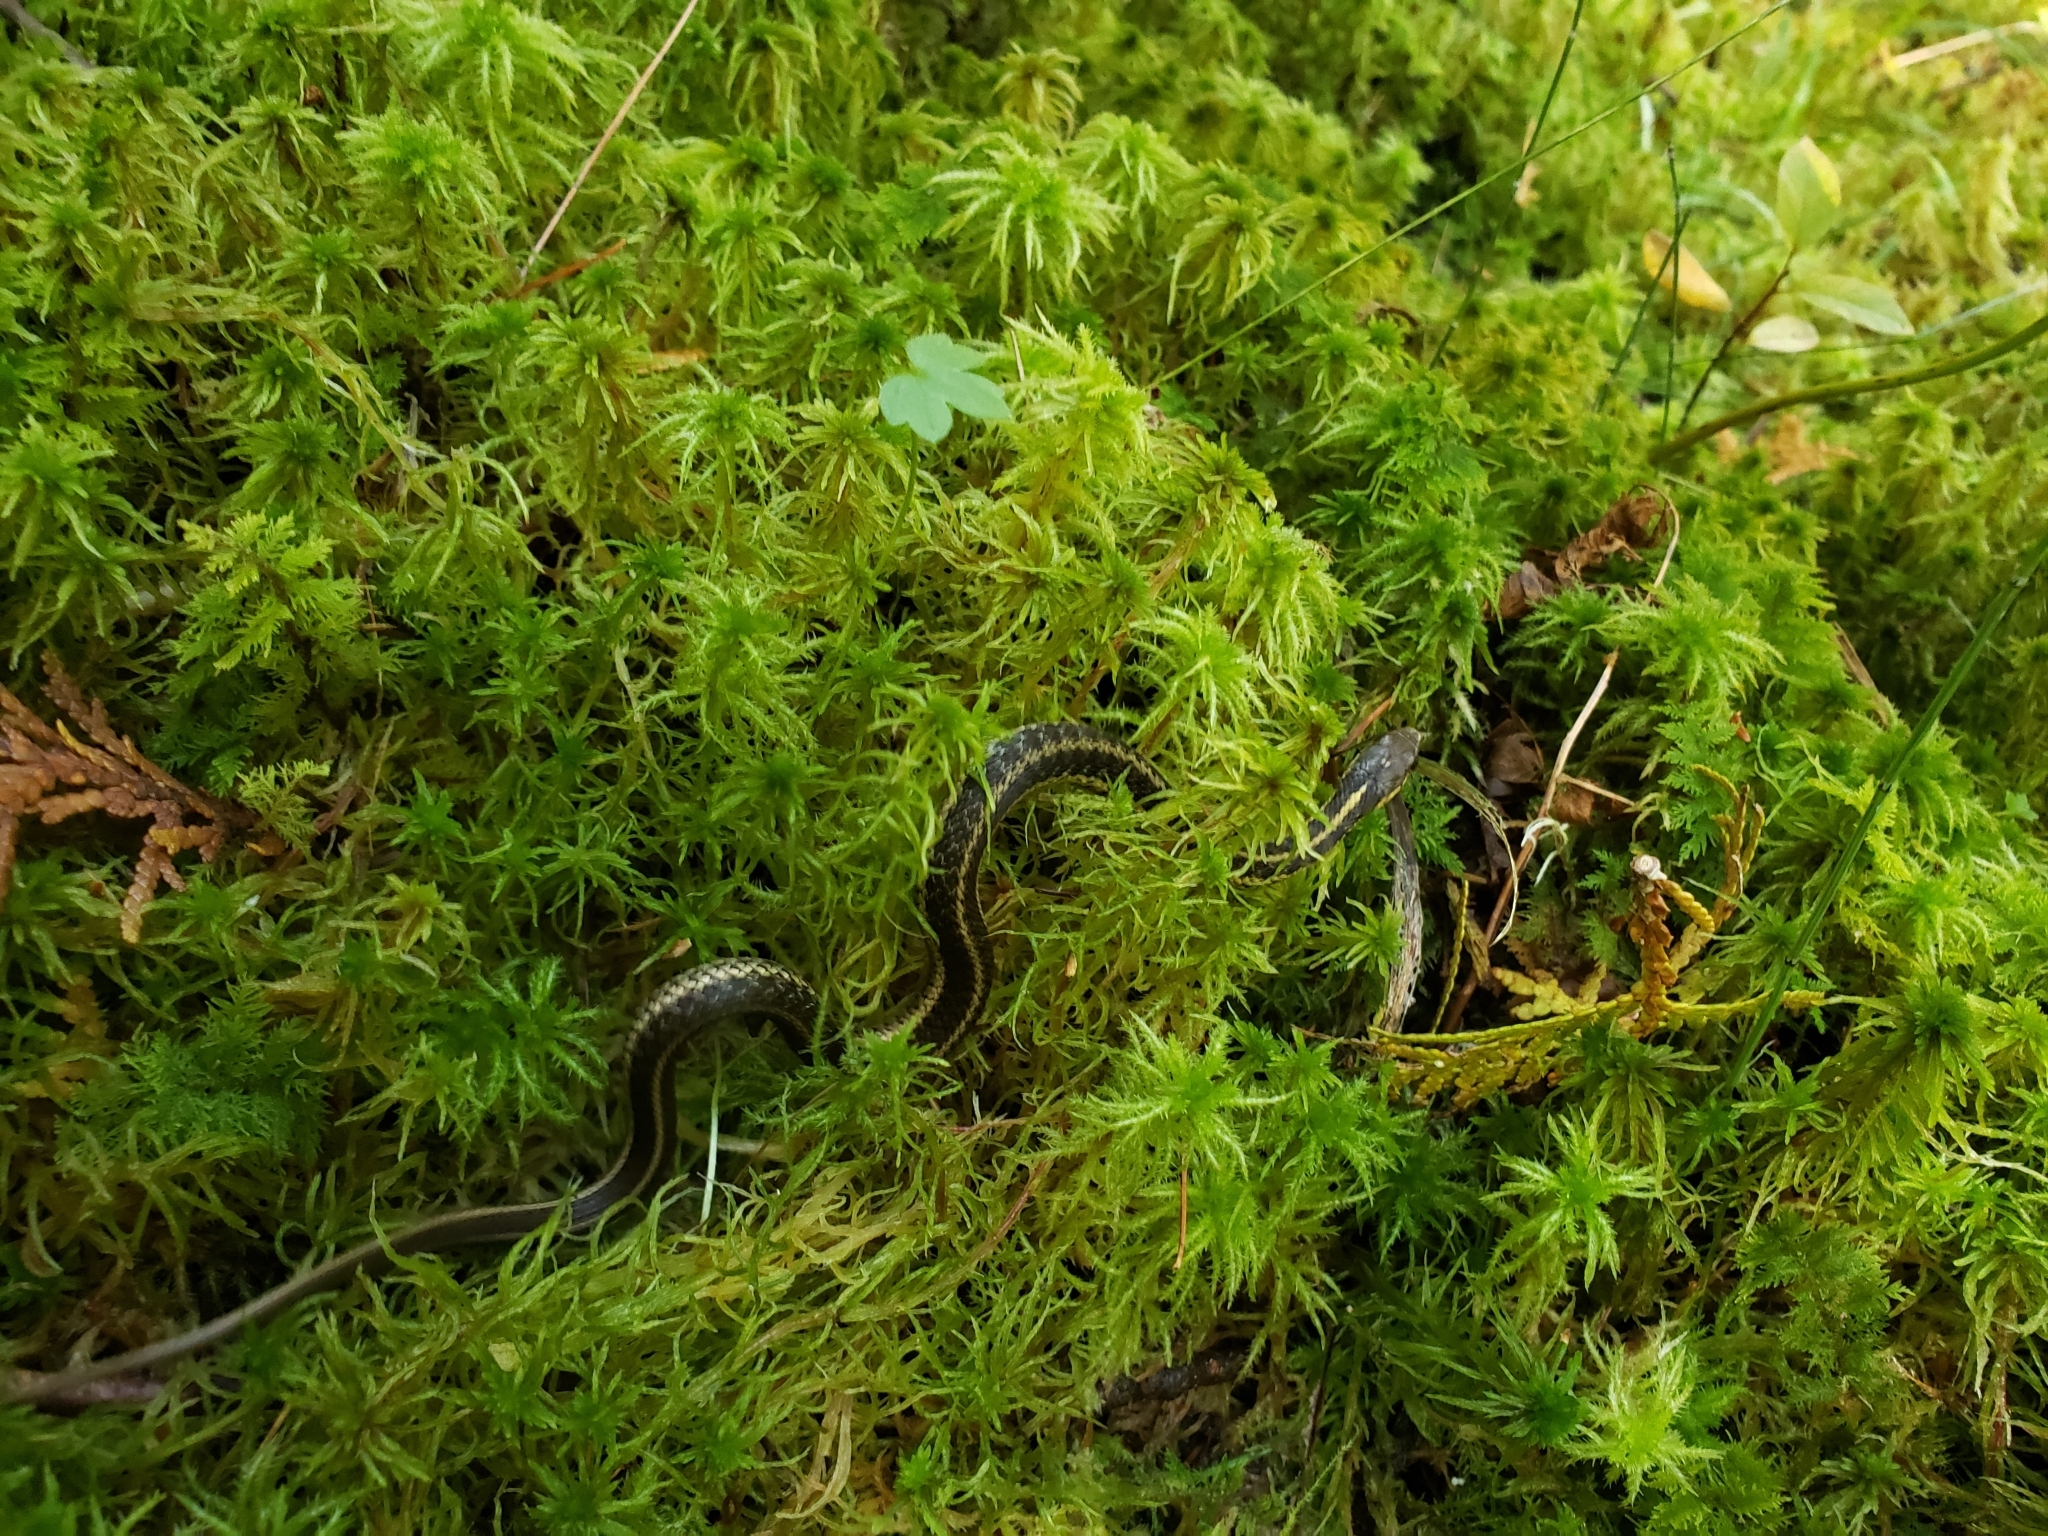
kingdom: Animalia
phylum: Chordata
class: Squamata
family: Colubridae
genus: Thamnophis
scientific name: Thamnophis sirtalis
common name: Common garter snake
